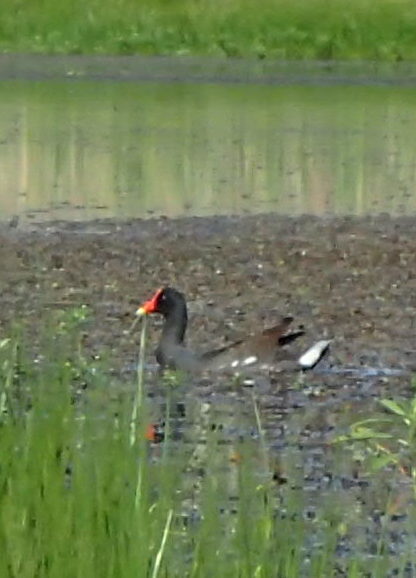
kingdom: Animalia
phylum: Chordata
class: Aves
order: Gruiformes
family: Rallidae
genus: Gallinula
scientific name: Gallinula chloropus
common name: Common moorhen
